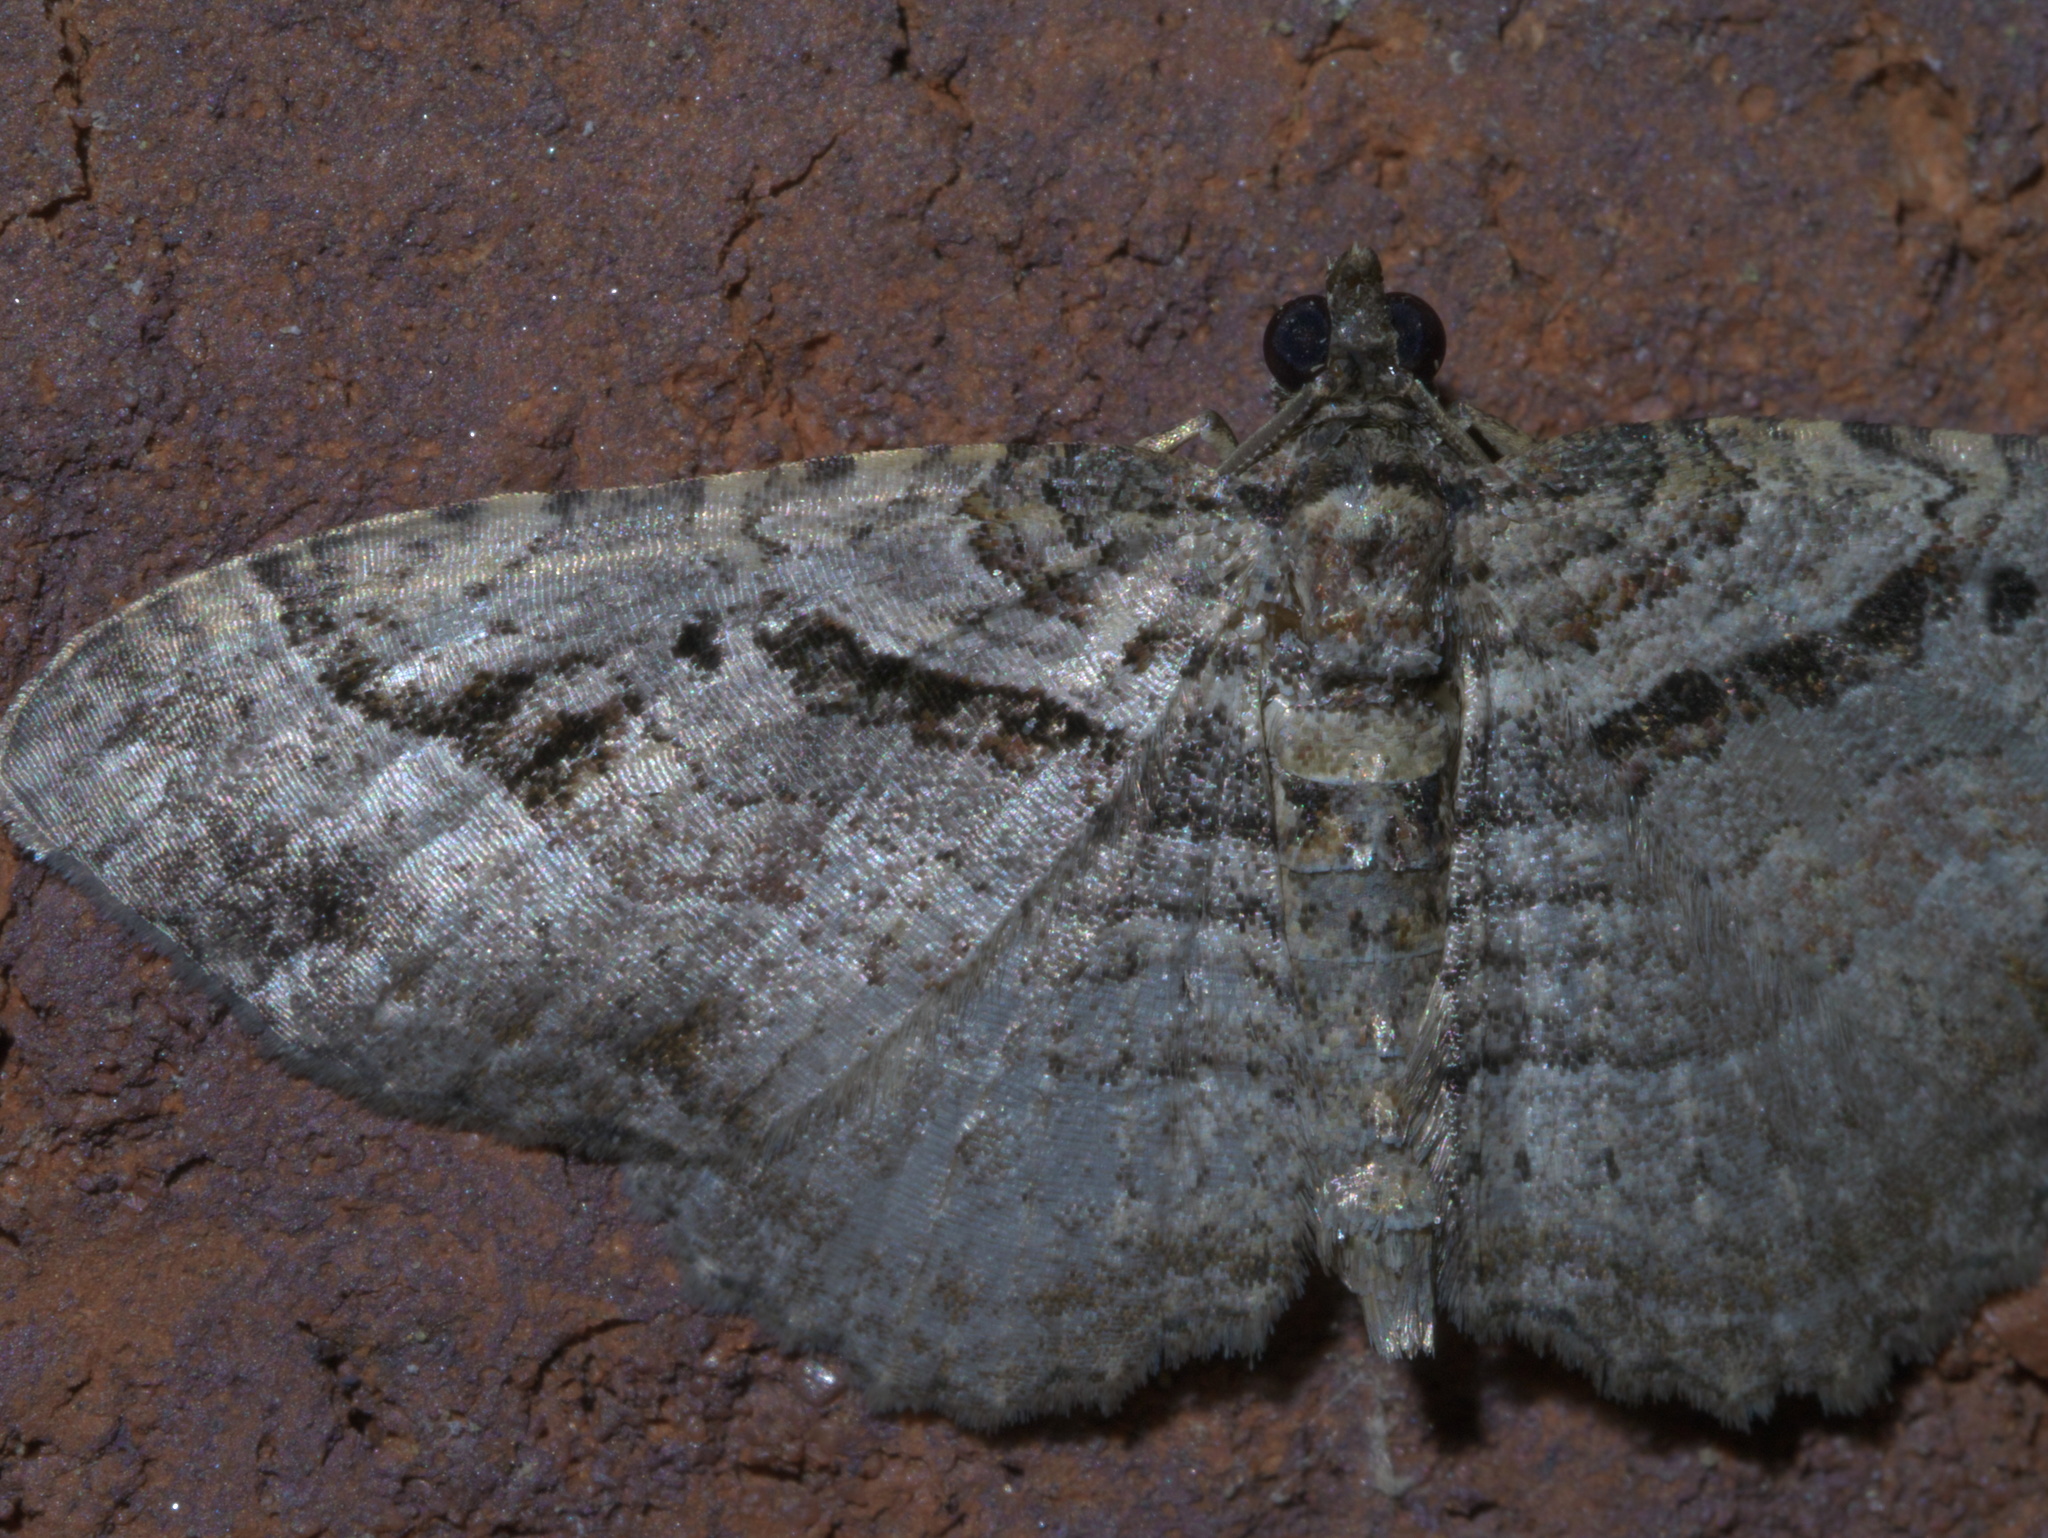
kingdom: Animalia
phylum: Arthropoda
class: Insecta
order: Lepidoptera
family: Geometridae
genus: Costaconvexa
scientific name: Costaconvexa centrostrigaria
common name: Bent-line carpet
